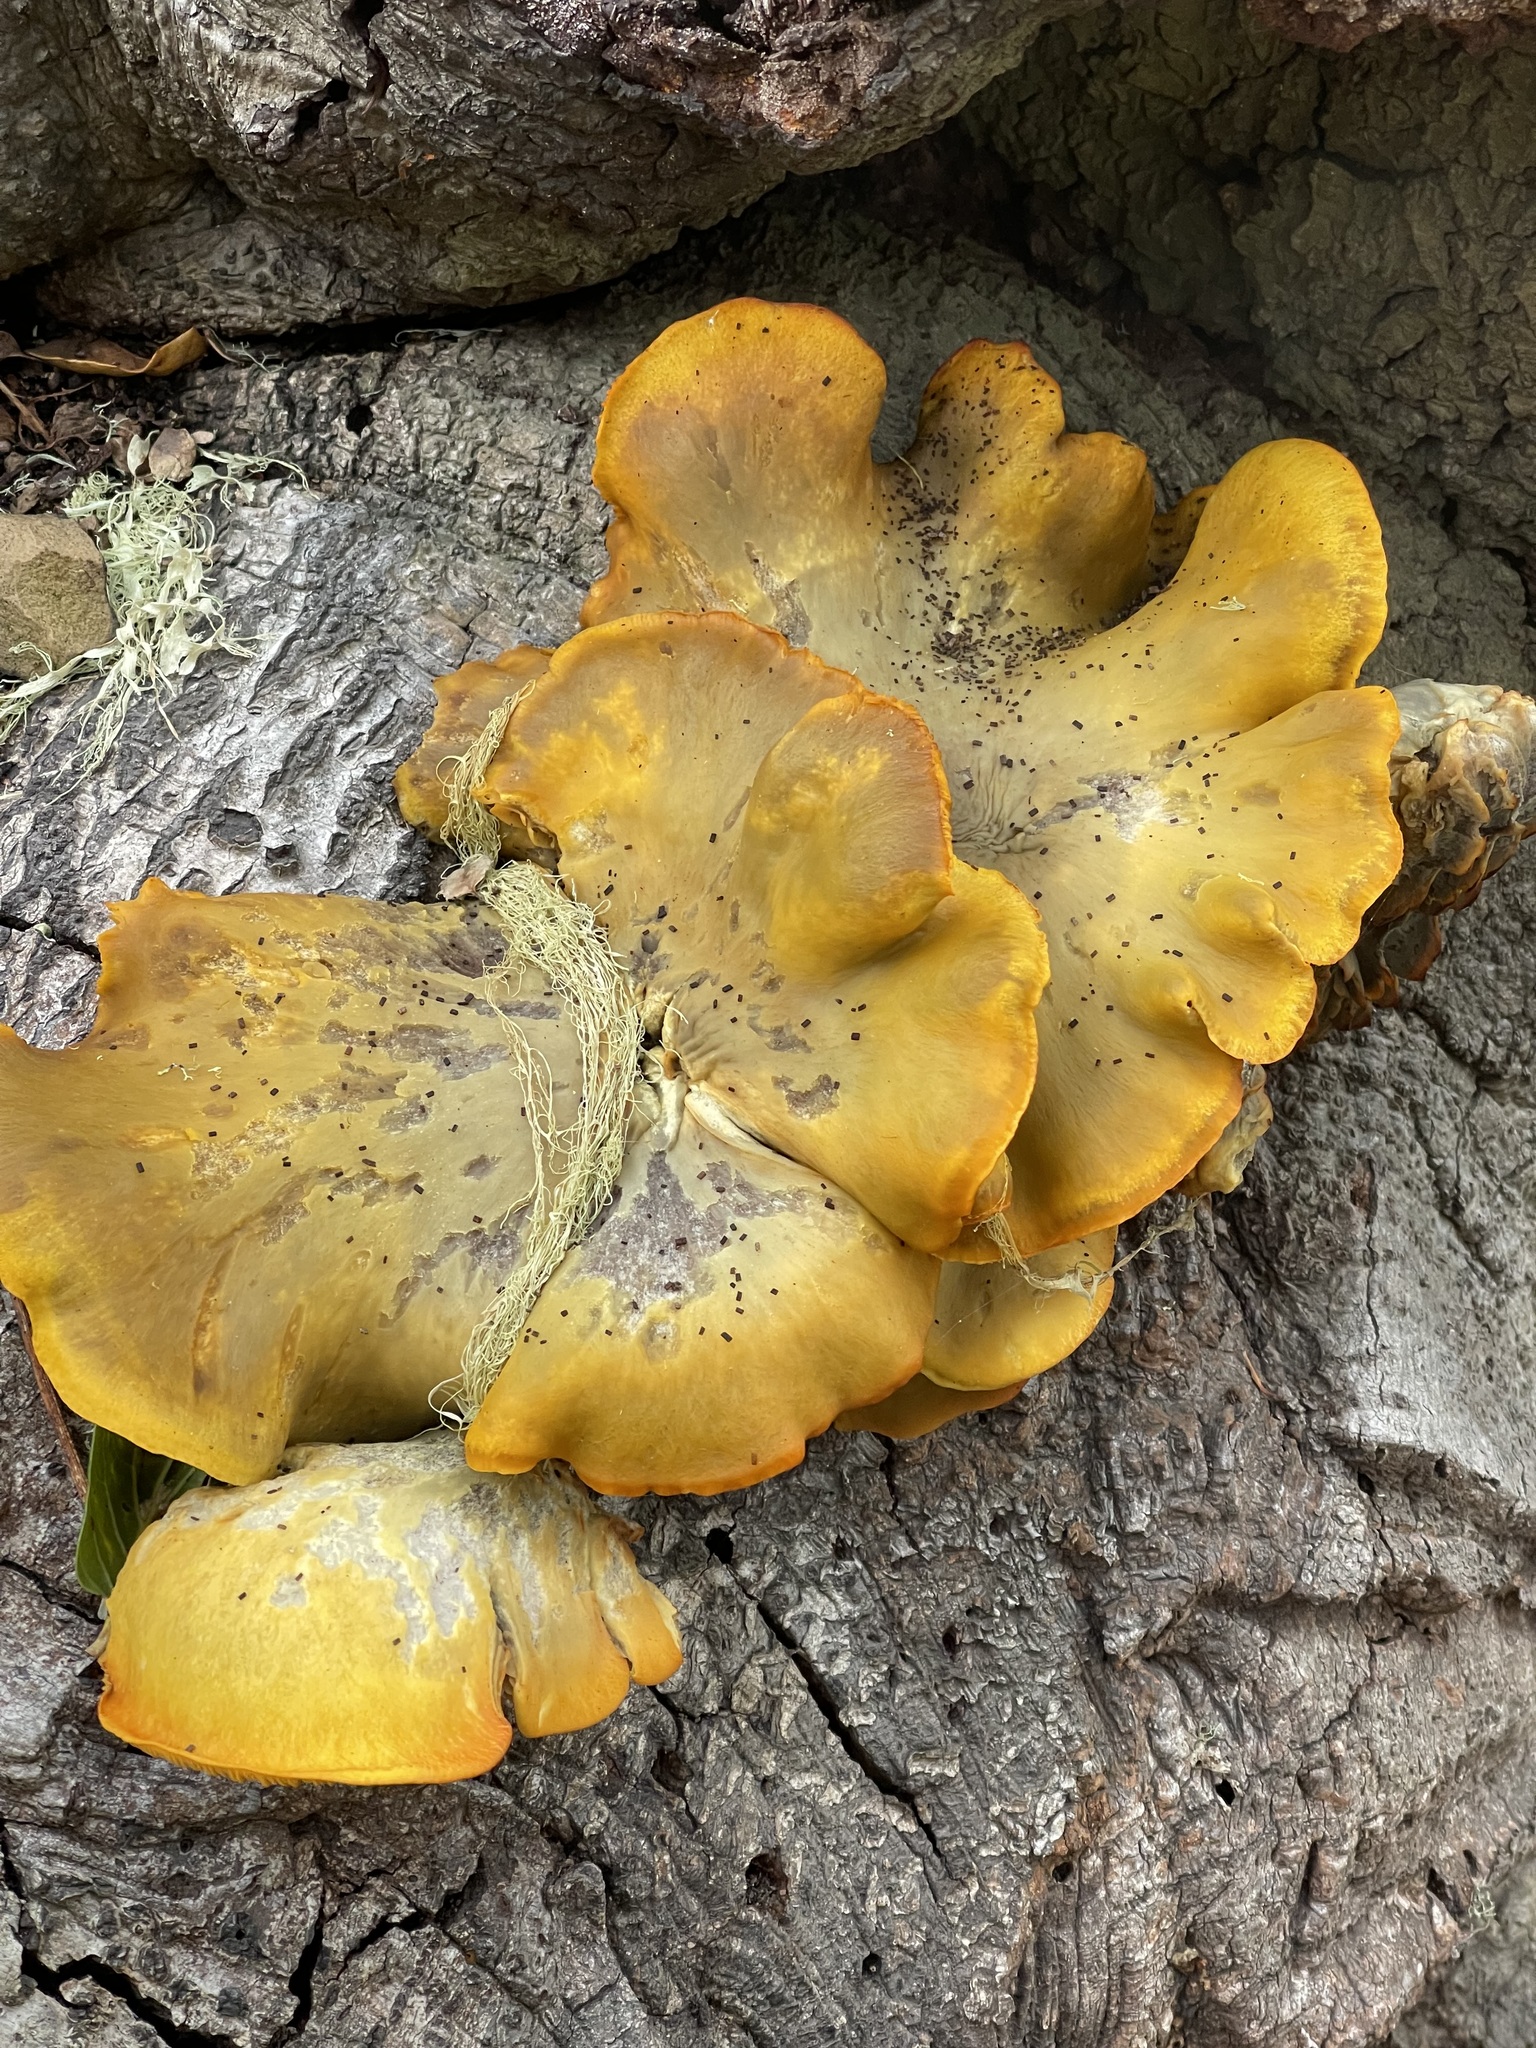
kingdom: Fungi
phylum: Basidiomycota
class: Agaricomycetes
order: Agaricales
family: Omphalotaceae
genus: Omphalotus
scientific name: Omphalotus olivascens
